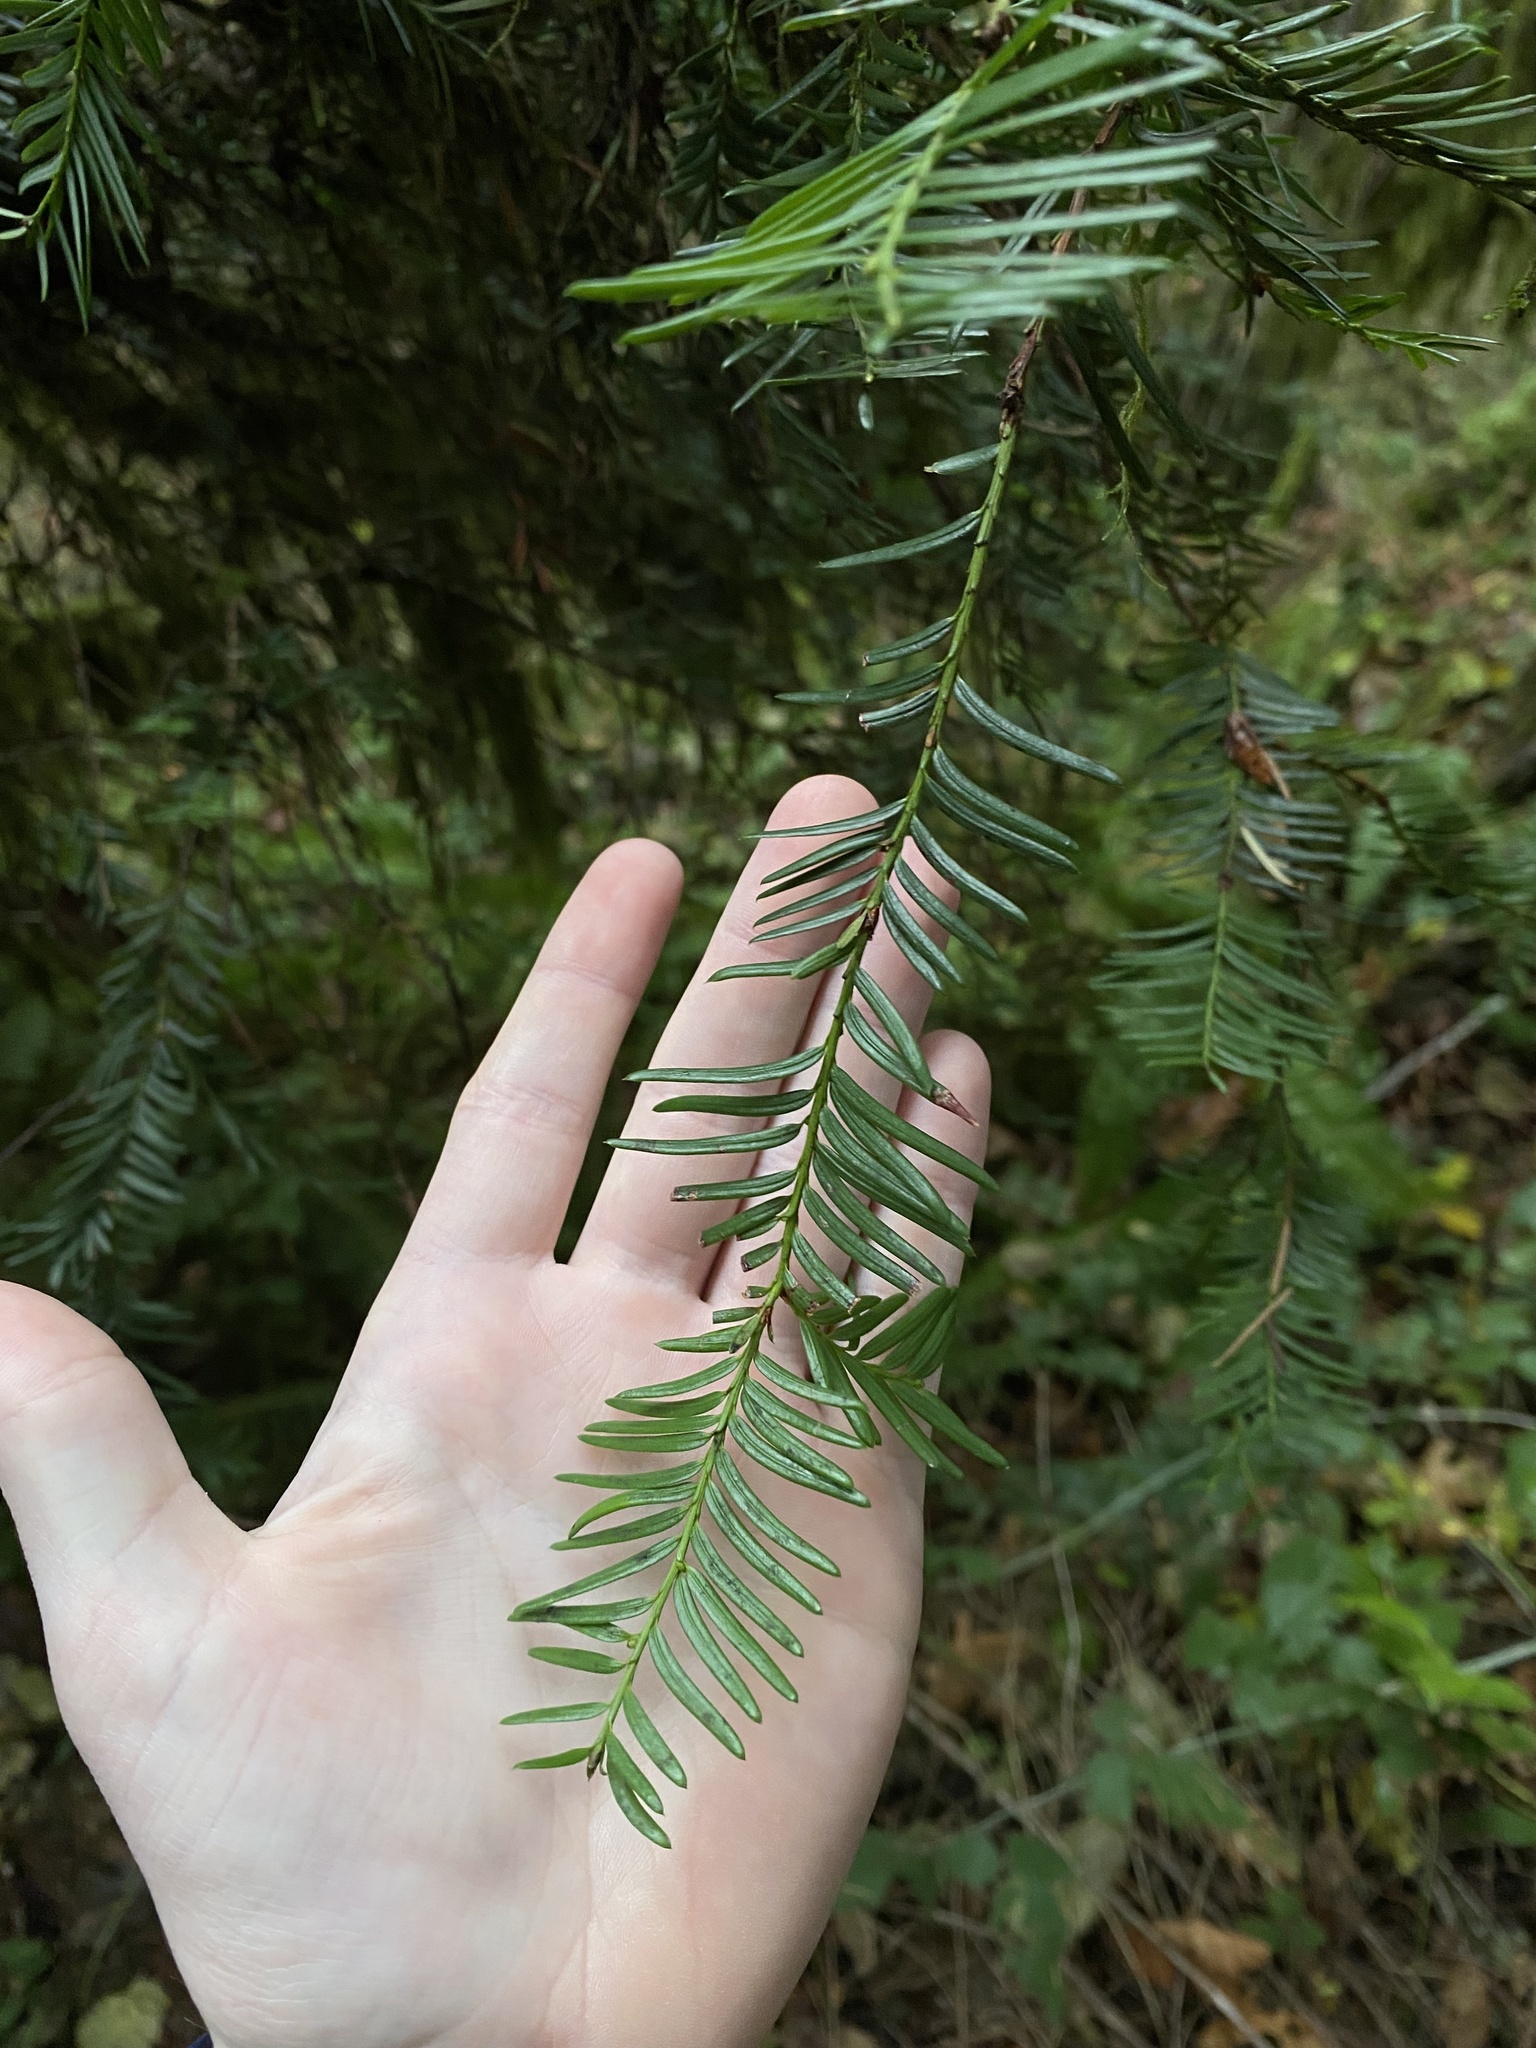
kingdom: Plantae
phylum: Tracheophyta
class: Pinopsida
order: Pinales
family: Taxaceae
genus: Taxus
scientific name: Taxus brevifolia
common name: Pacific yew
